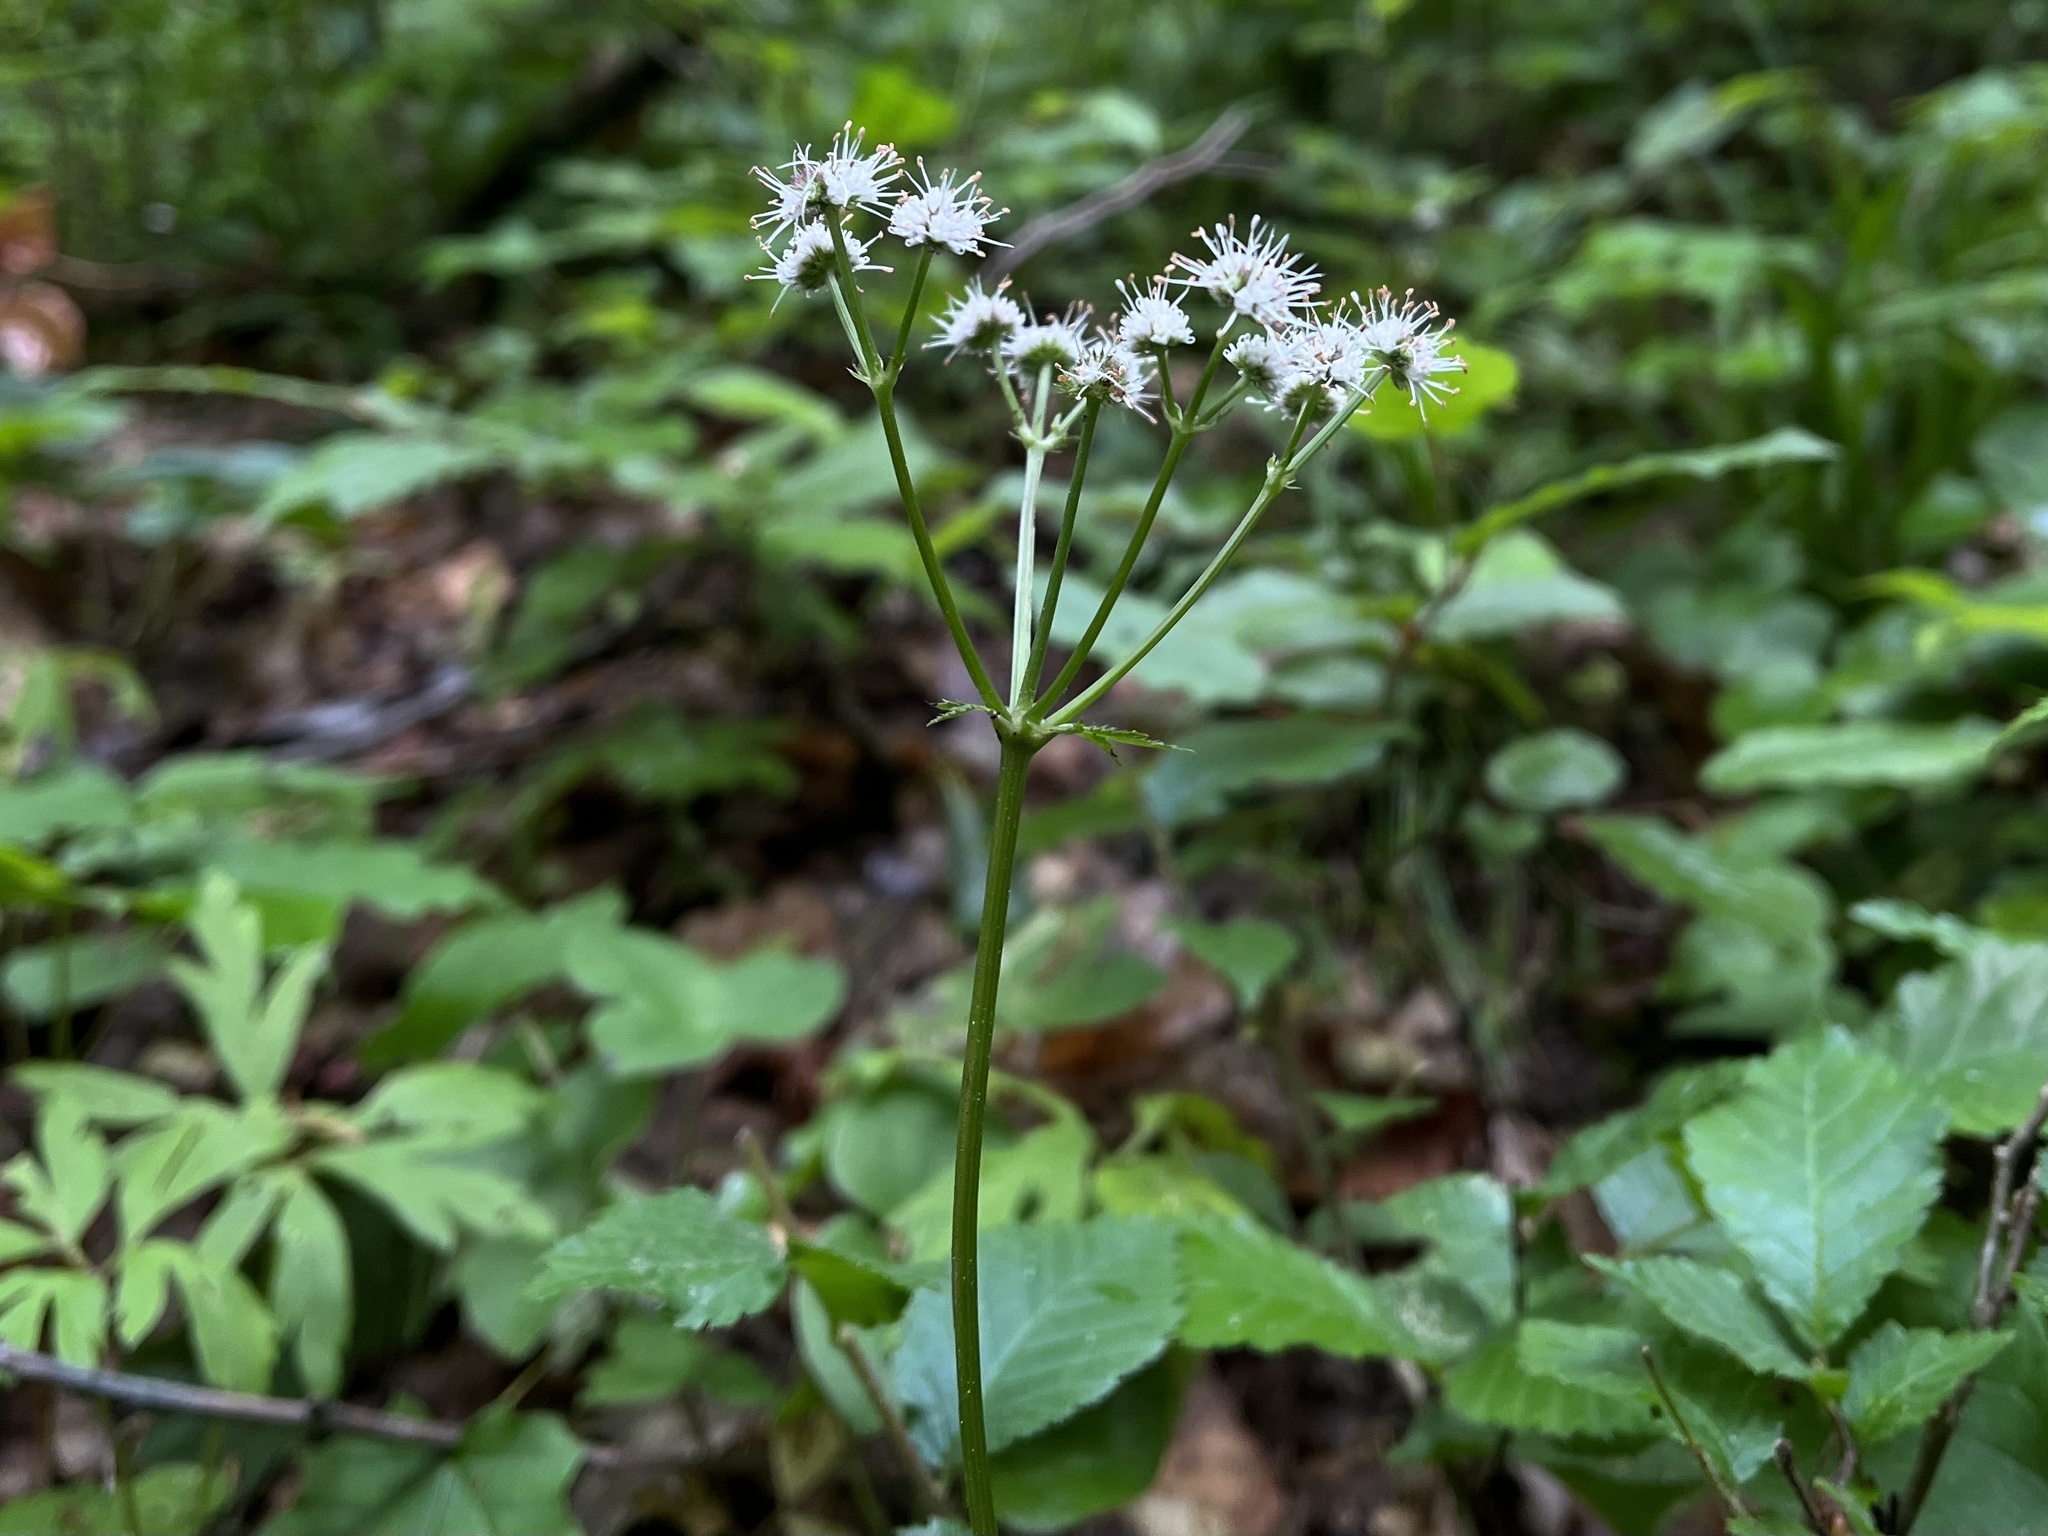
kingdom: Plantae
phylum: Tracheophyta
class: Magnoliopsida
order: Apiales
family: Apiaceae
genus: Sanicula
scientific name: Sanicula europaea
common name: Sanicle
